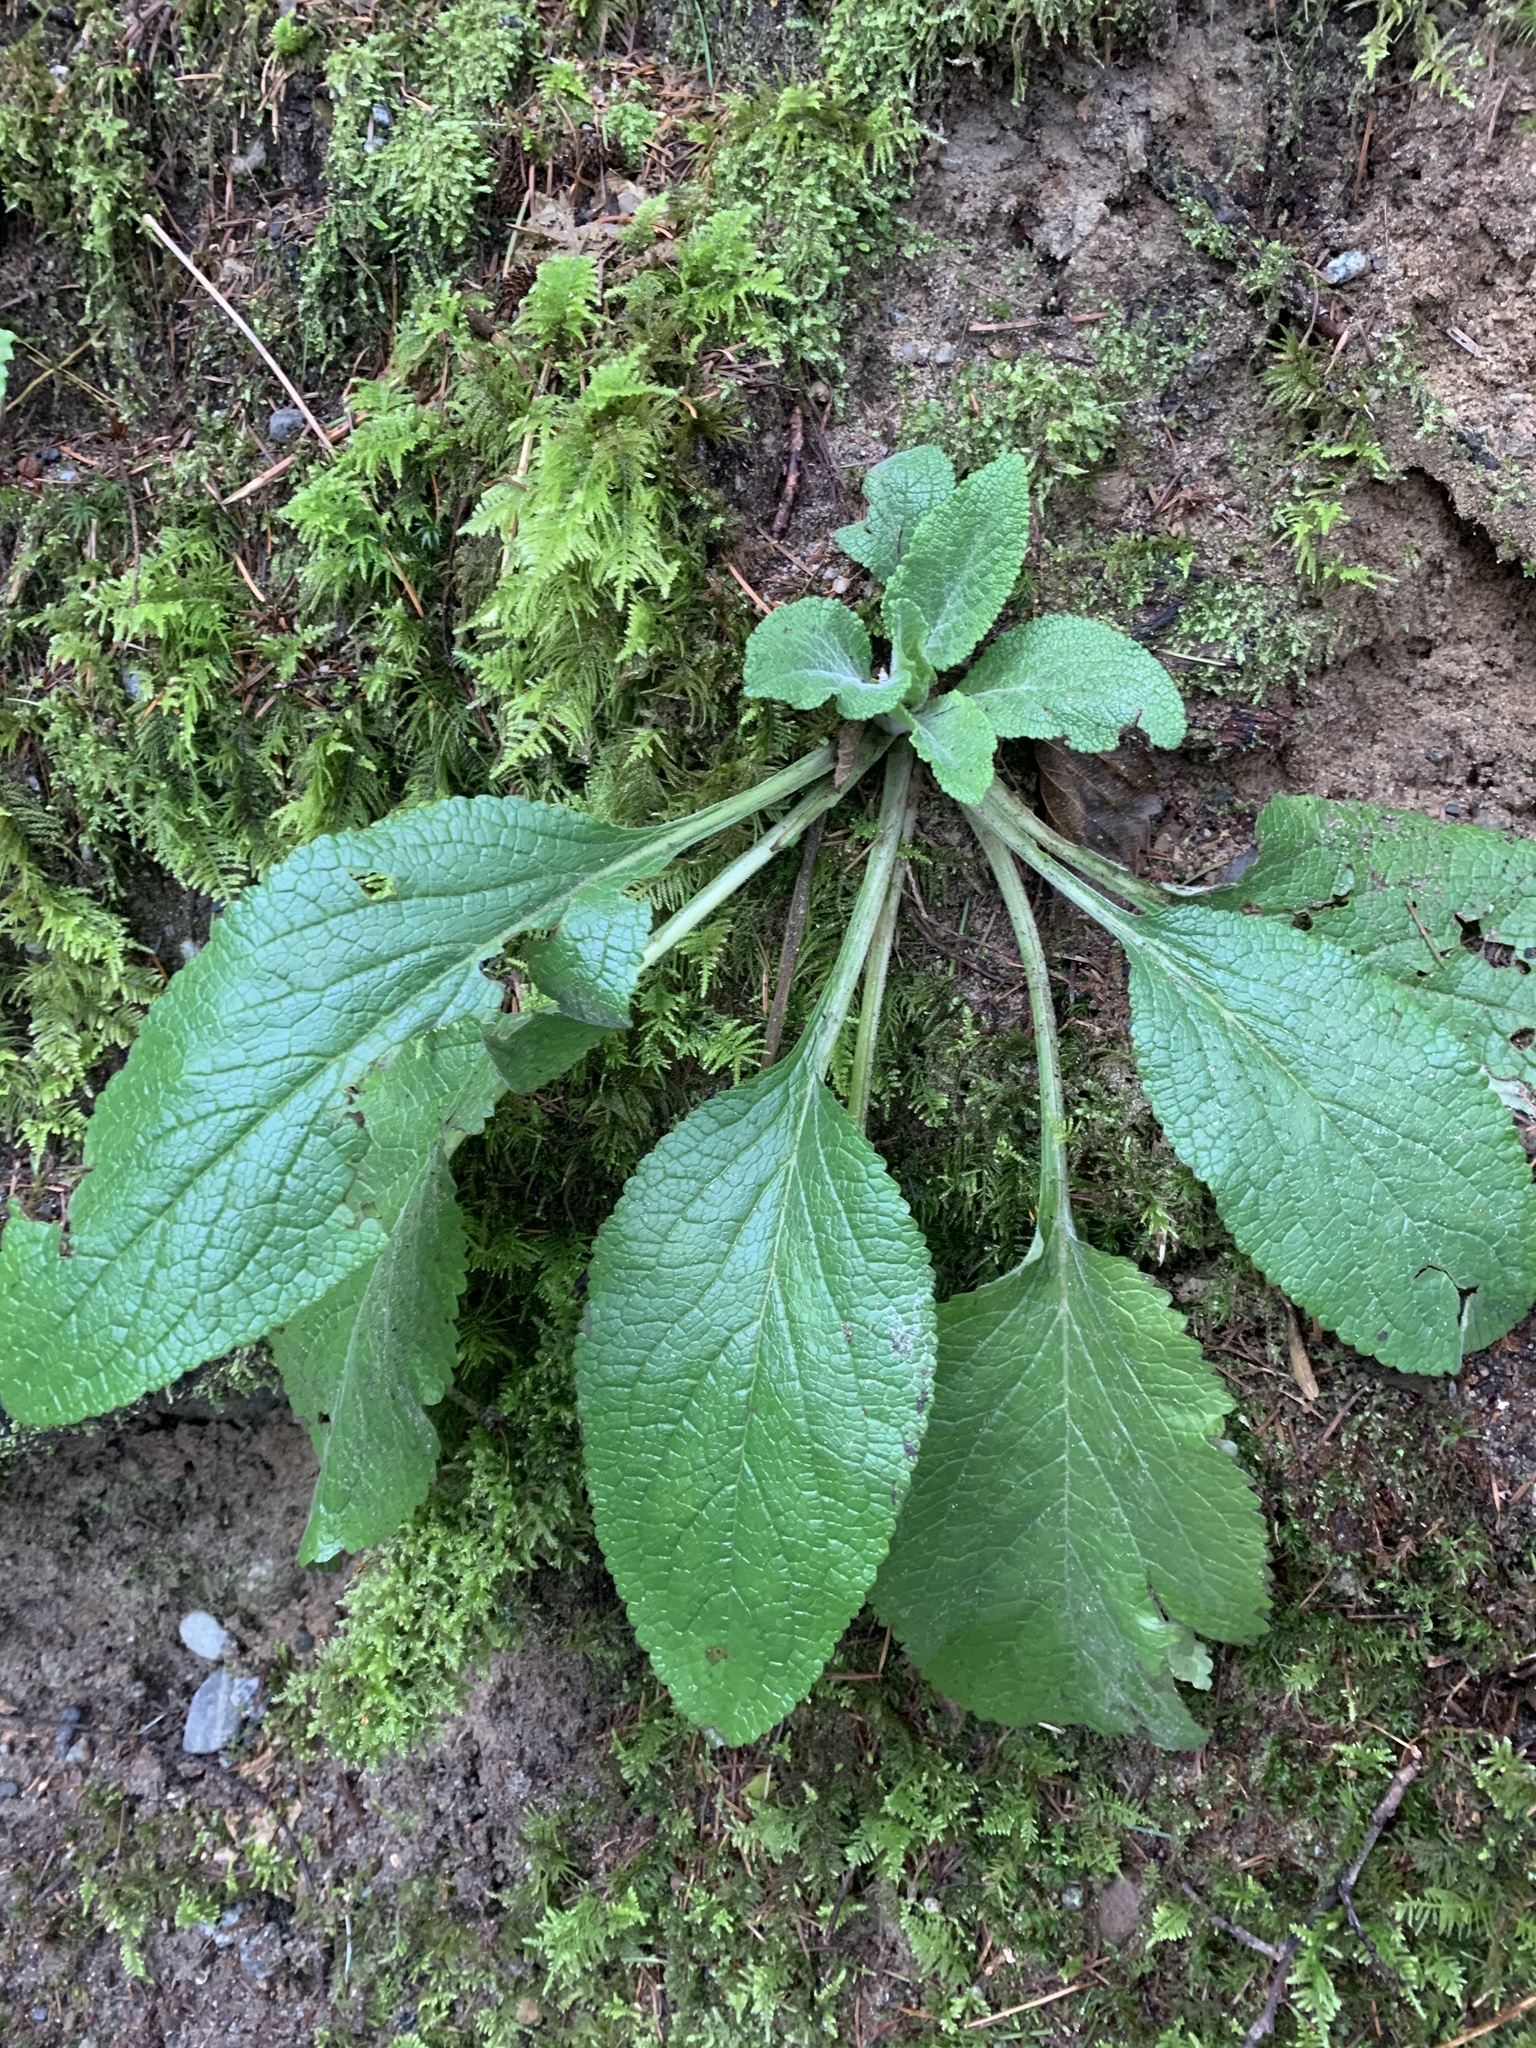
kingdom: Plantae
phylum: Tracheophyta
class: Magnoliopsida
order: Lamiales
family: Plantaginaceae
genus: Digitalis
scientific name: Digitalis purpurea
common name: Foxglove
